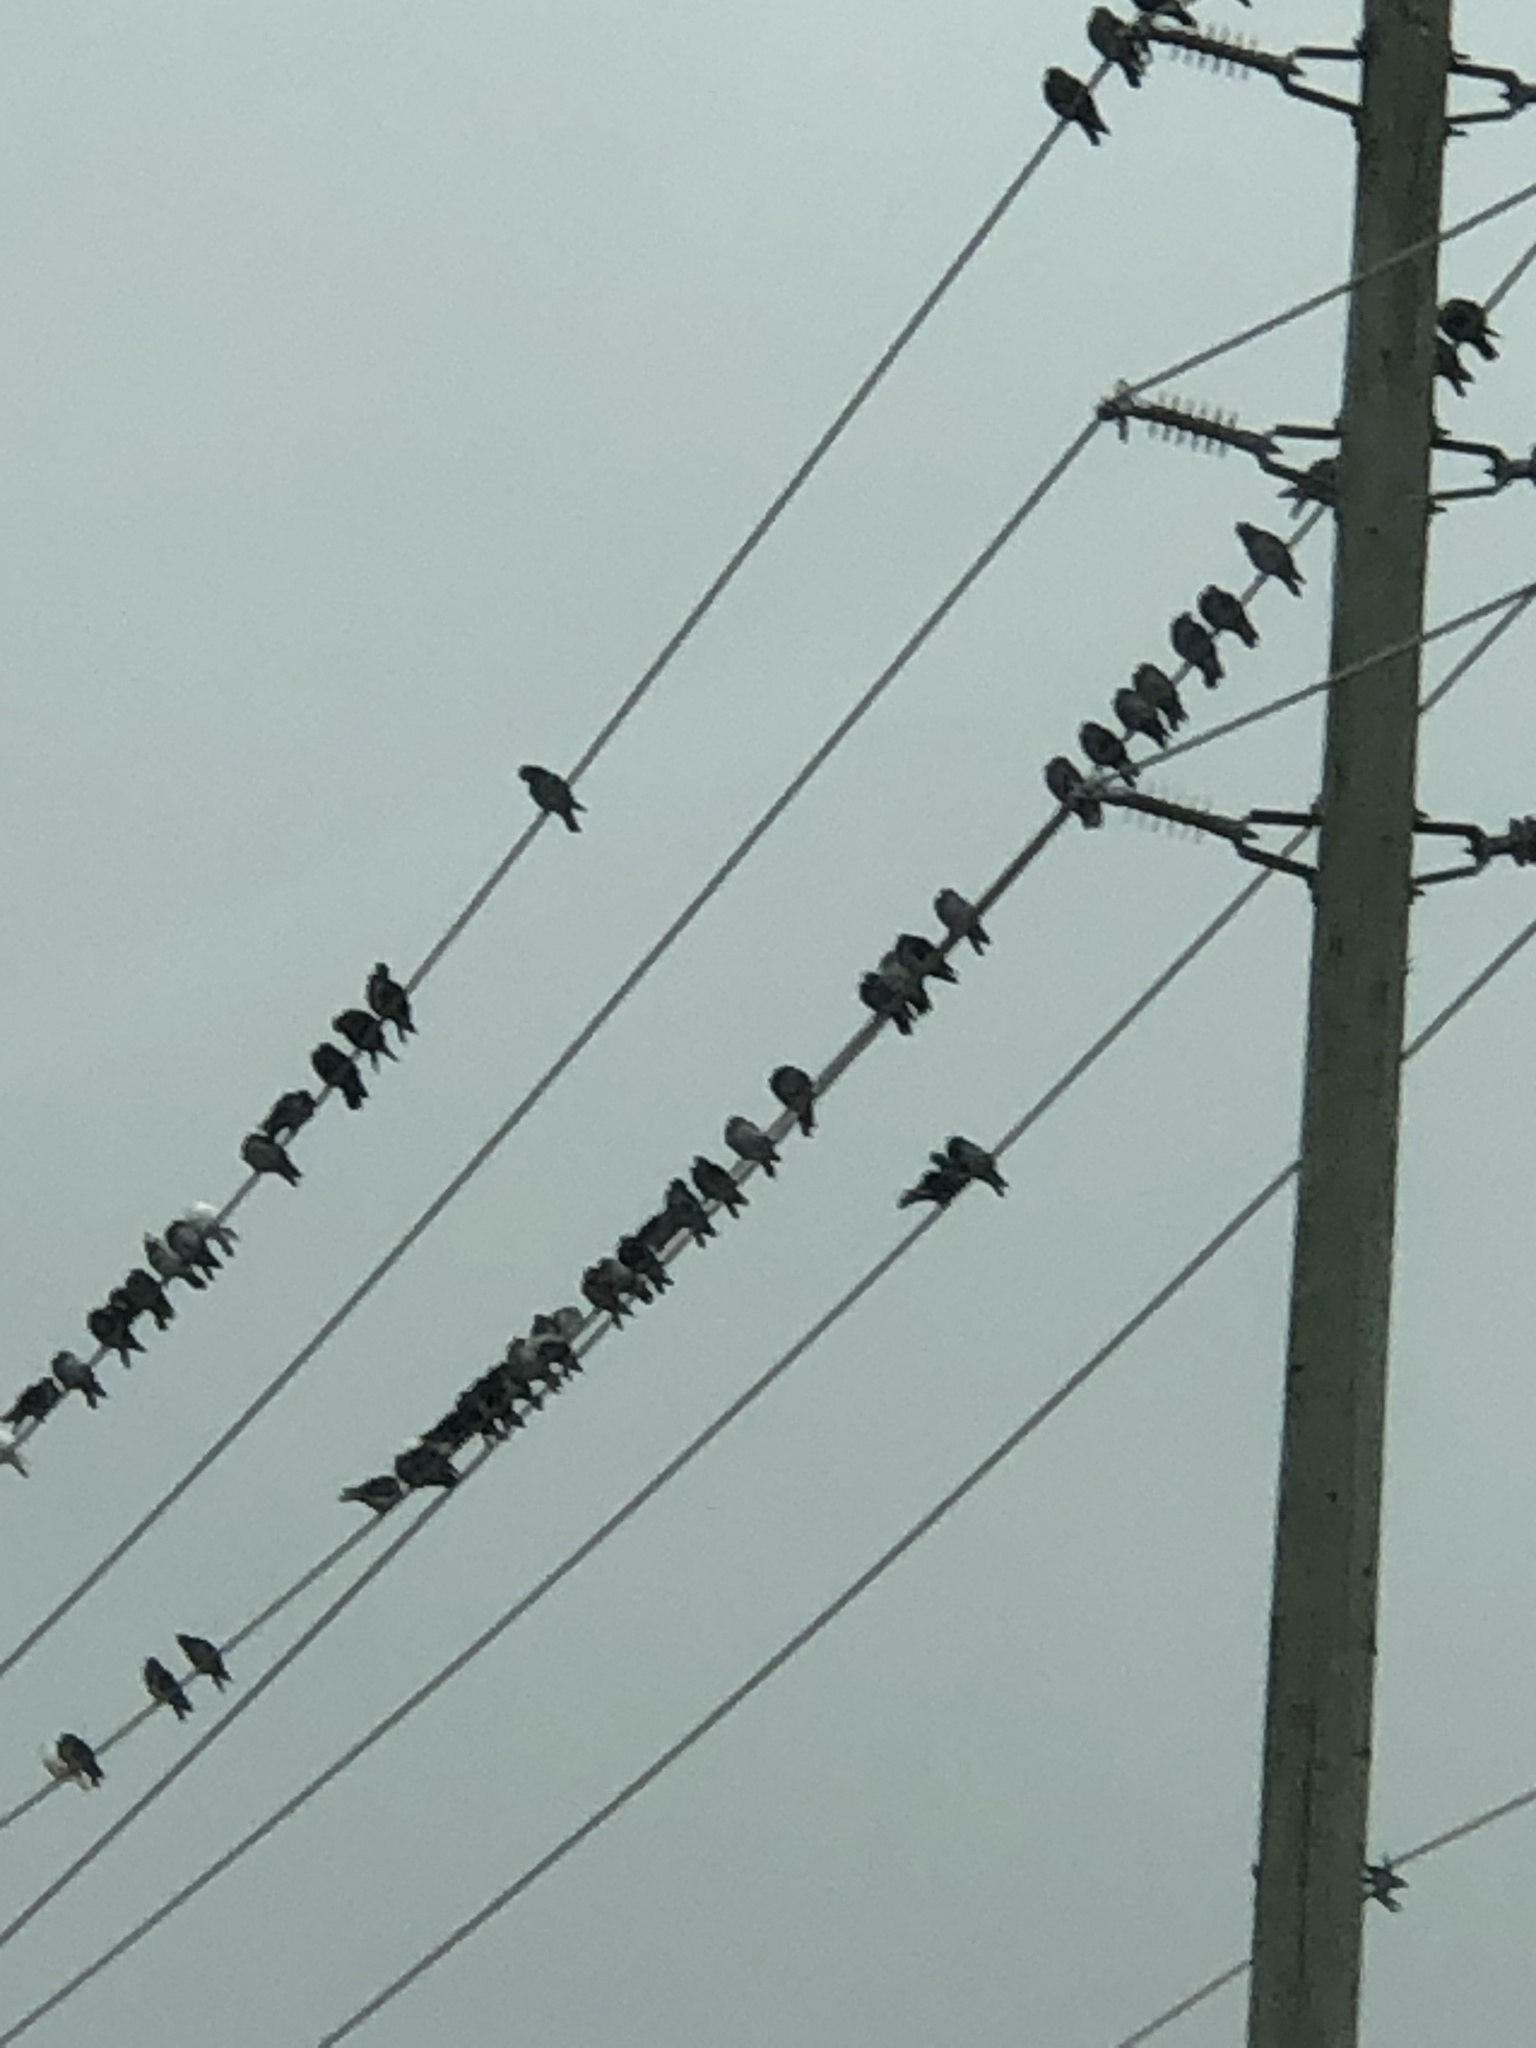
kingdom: Animalia
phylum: Chordata
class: Aves
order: Columbiformes
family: Columbidae
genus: Columba
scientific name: Columba livia
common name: Rock pigeon
